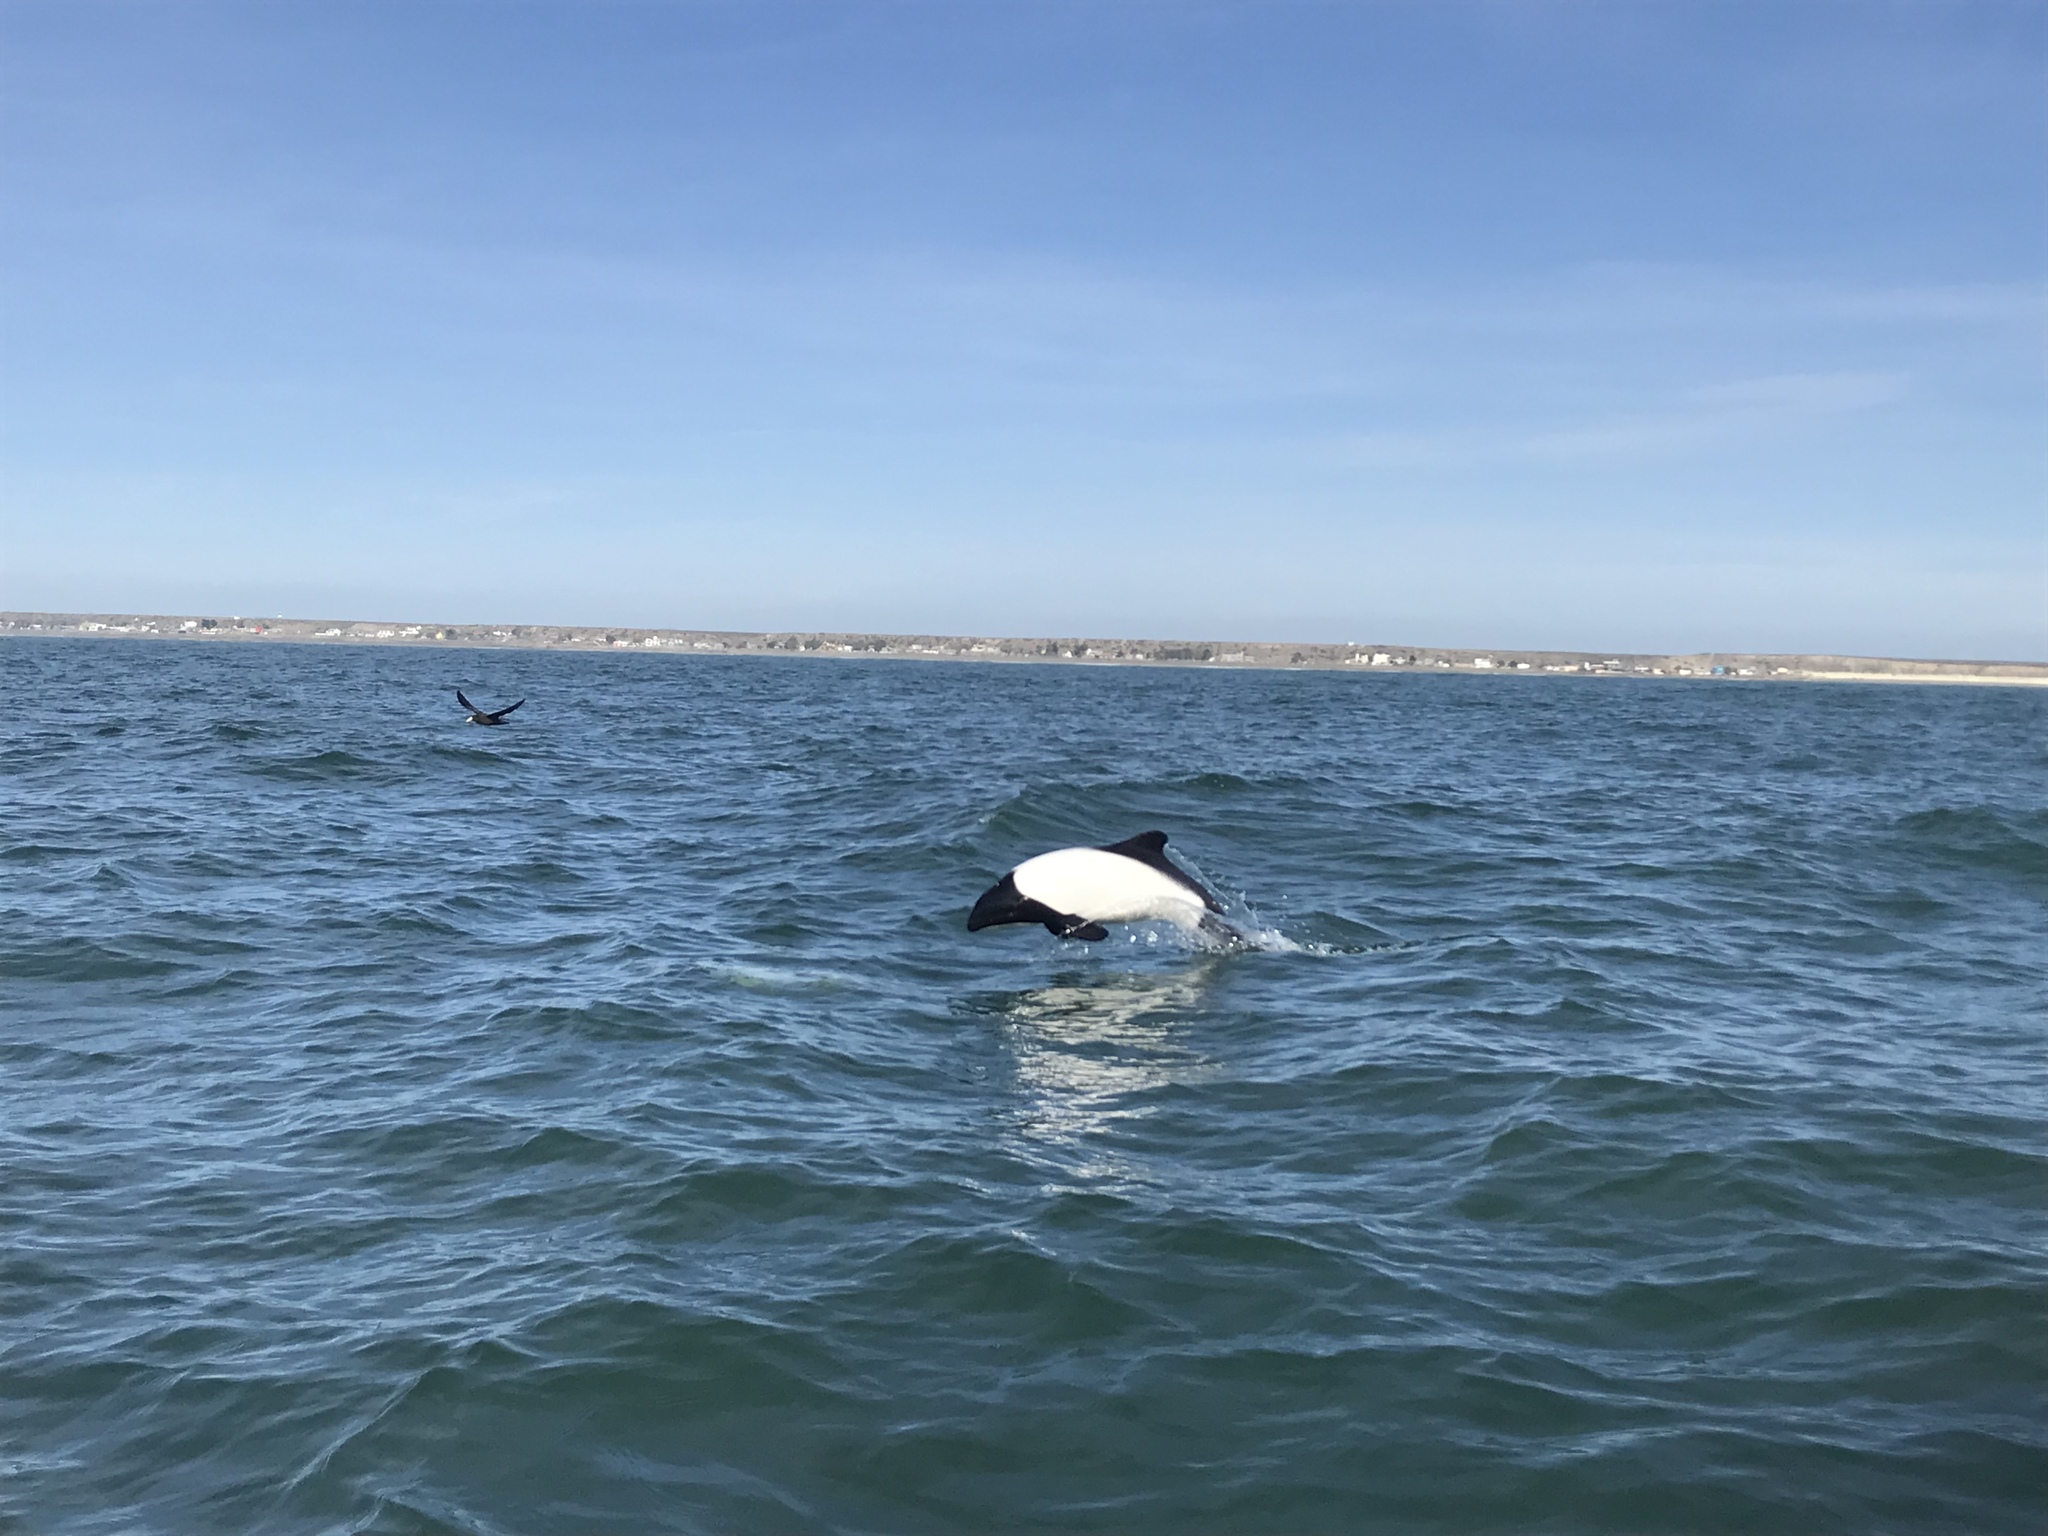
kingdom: Animalia
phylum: Chordata
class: Mammalia
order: Cetacea
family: Delphinidae
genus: Cephalorhynchus
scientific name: Cephalorhynchus commersonii
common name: Commerson's dolphin
